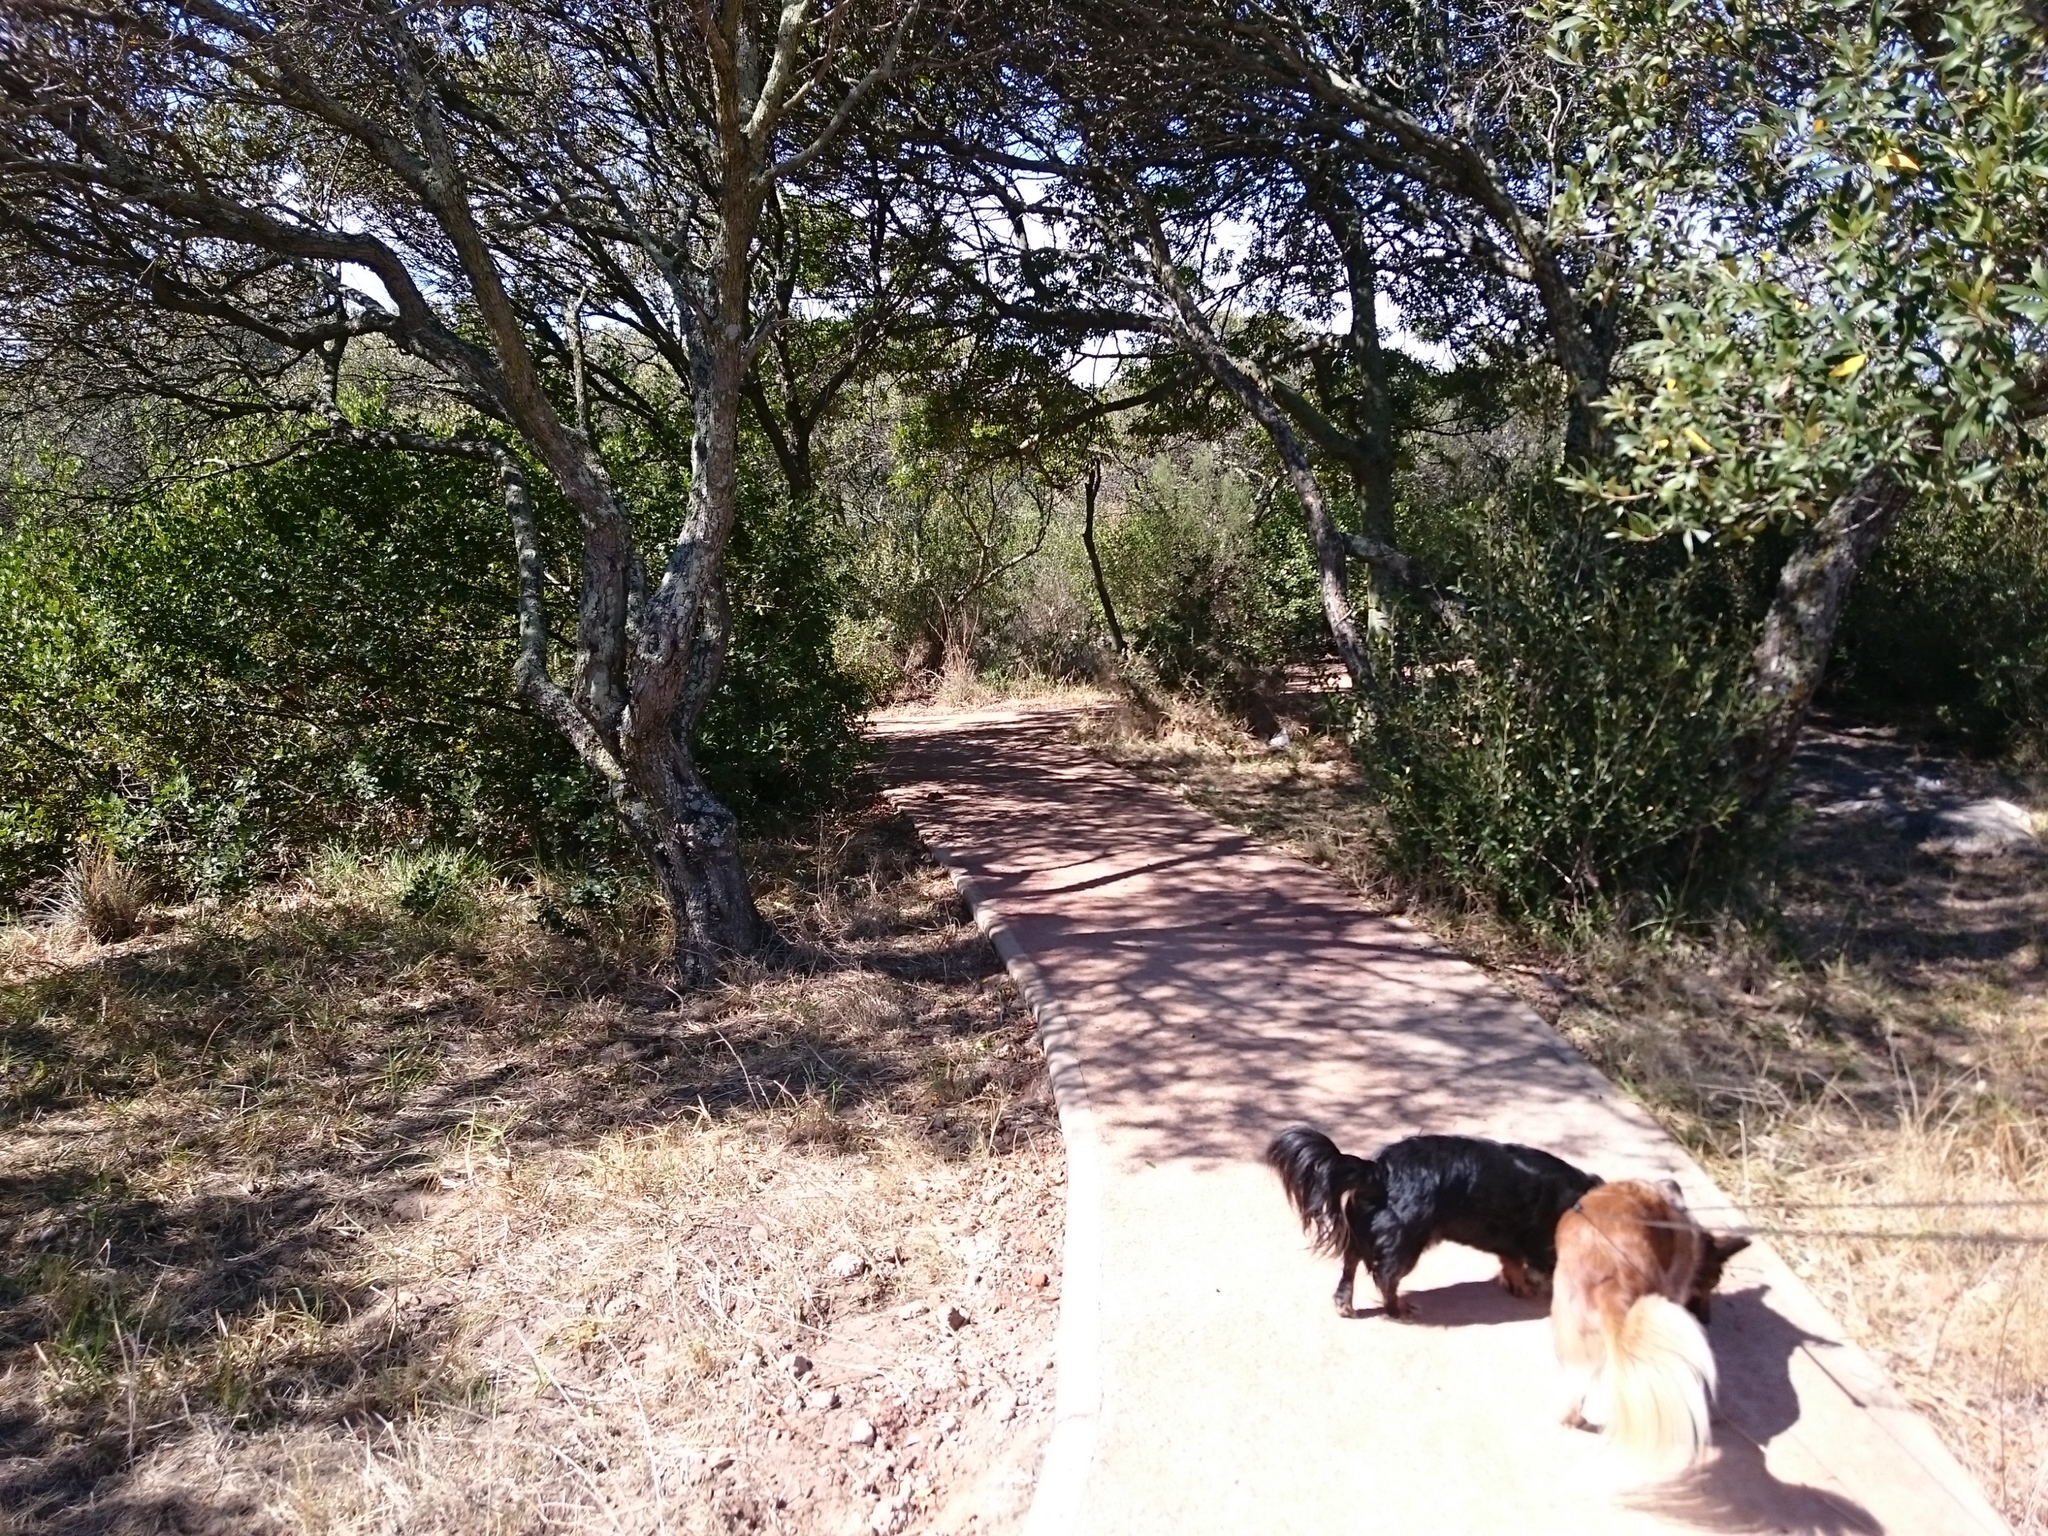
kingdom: Animalia
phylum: Chordata
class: Mammalia
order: Rodentia
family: Muridae
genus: Rhabdomys
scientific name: Rhabdomys pumilio
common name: Xeric four-striped grass rat
